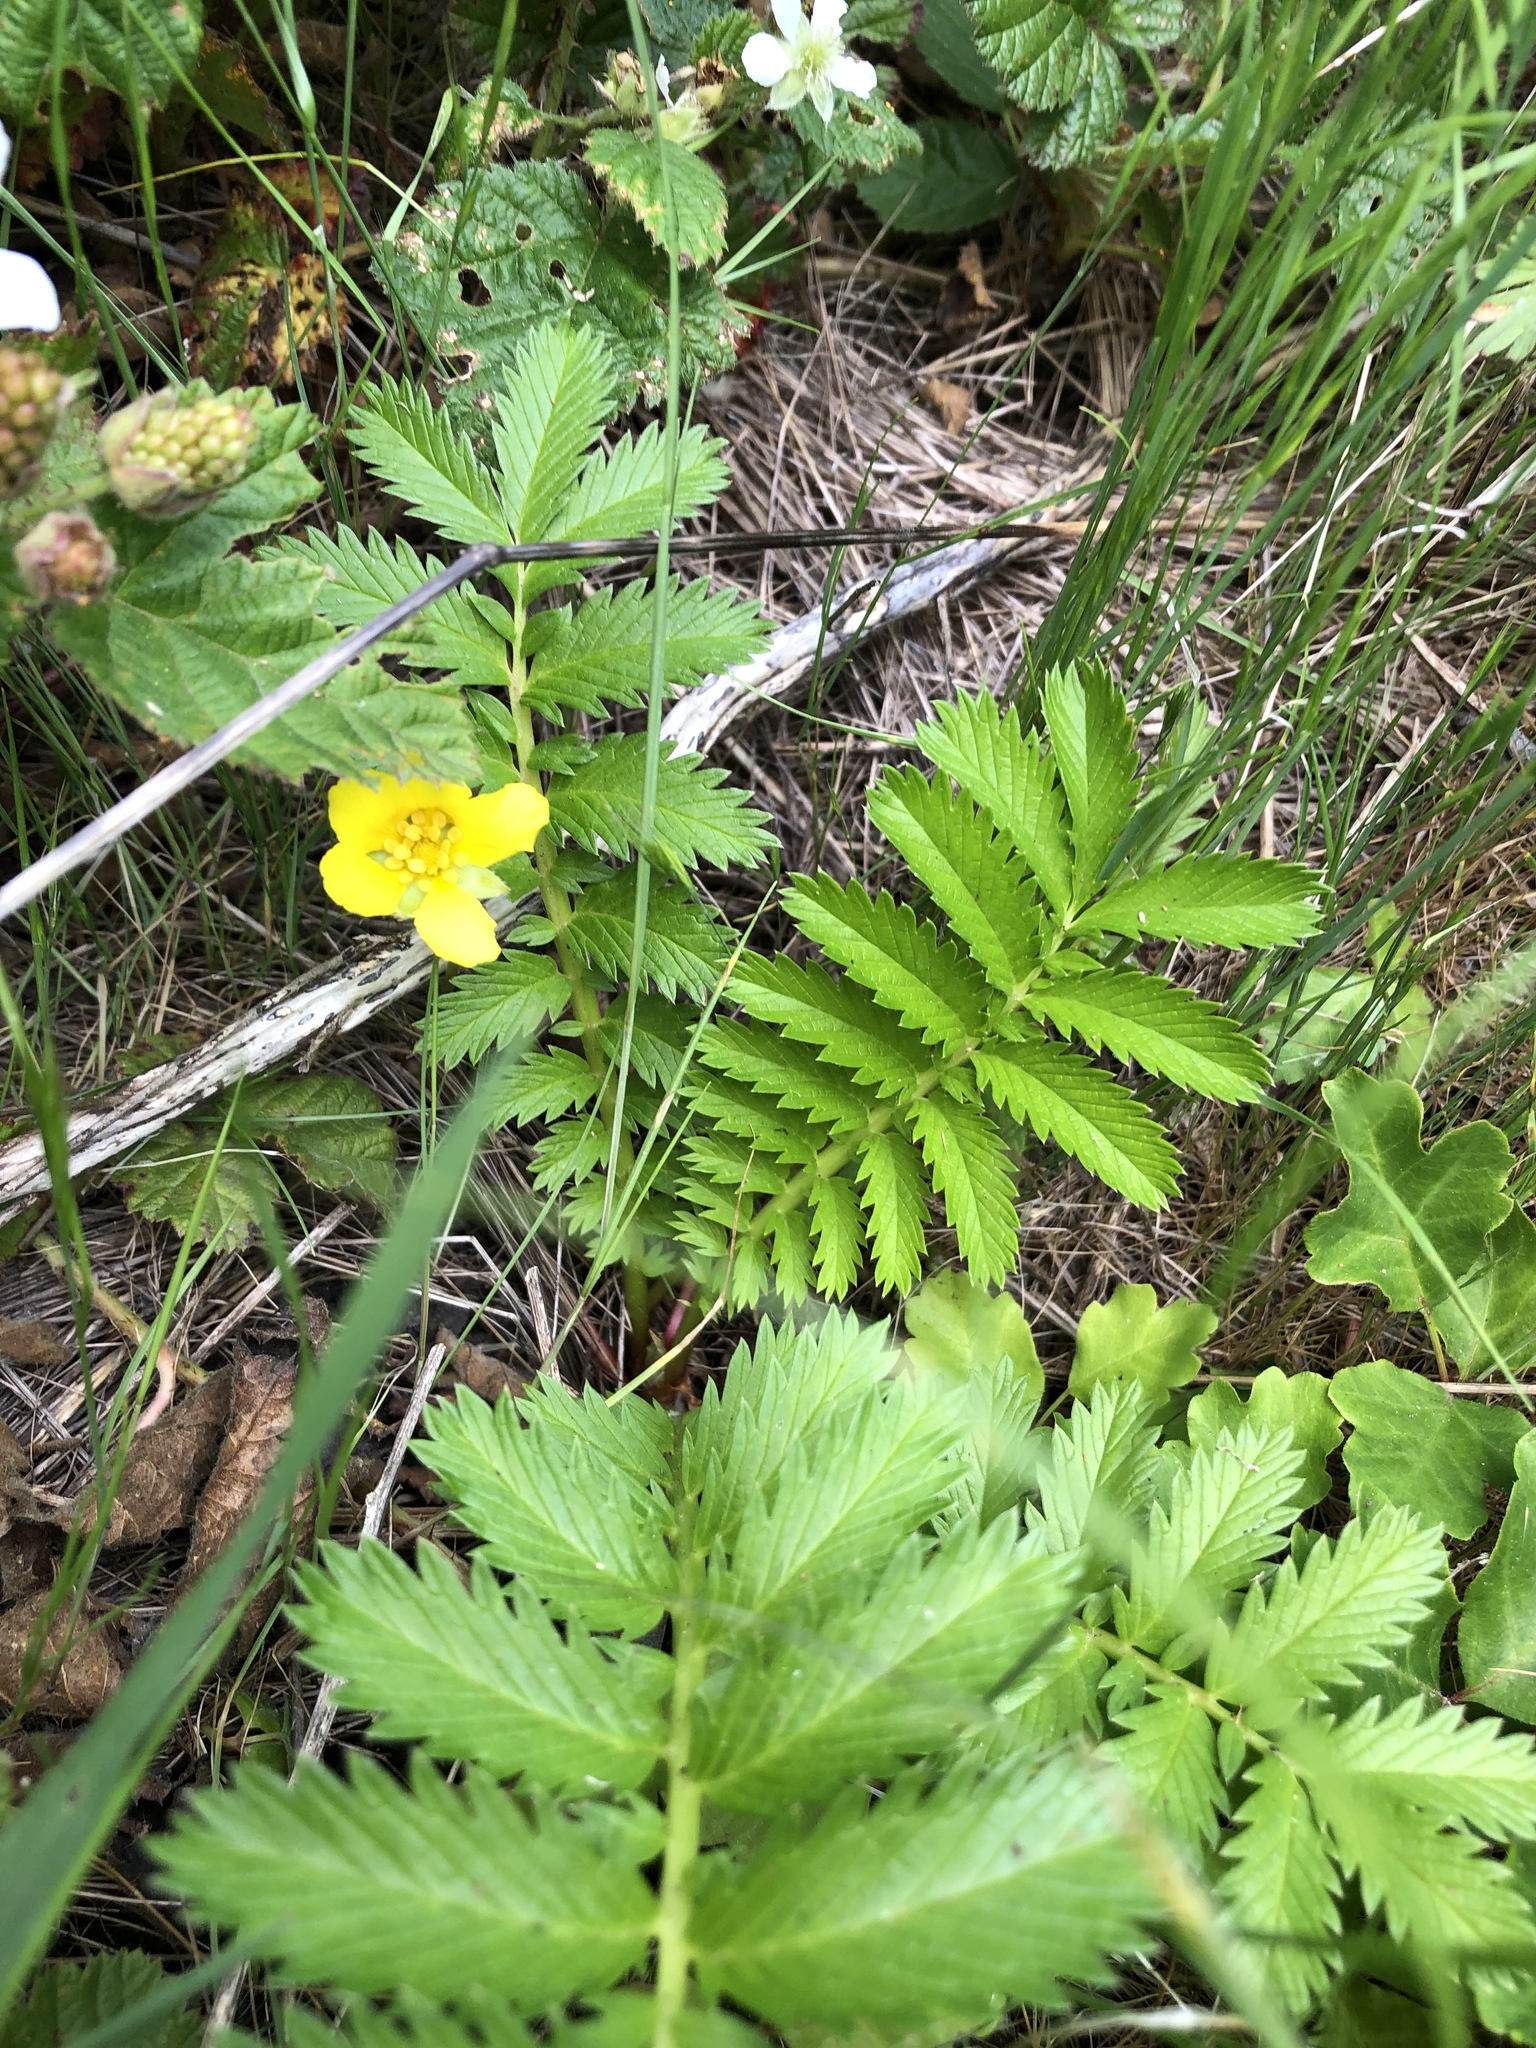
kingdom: Plantae
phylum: Tracheophyta
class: Magnoliopsida
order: Rosales
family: Rosaceae
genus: Argentina
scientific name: Argentina anserina
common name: Common silverweed
